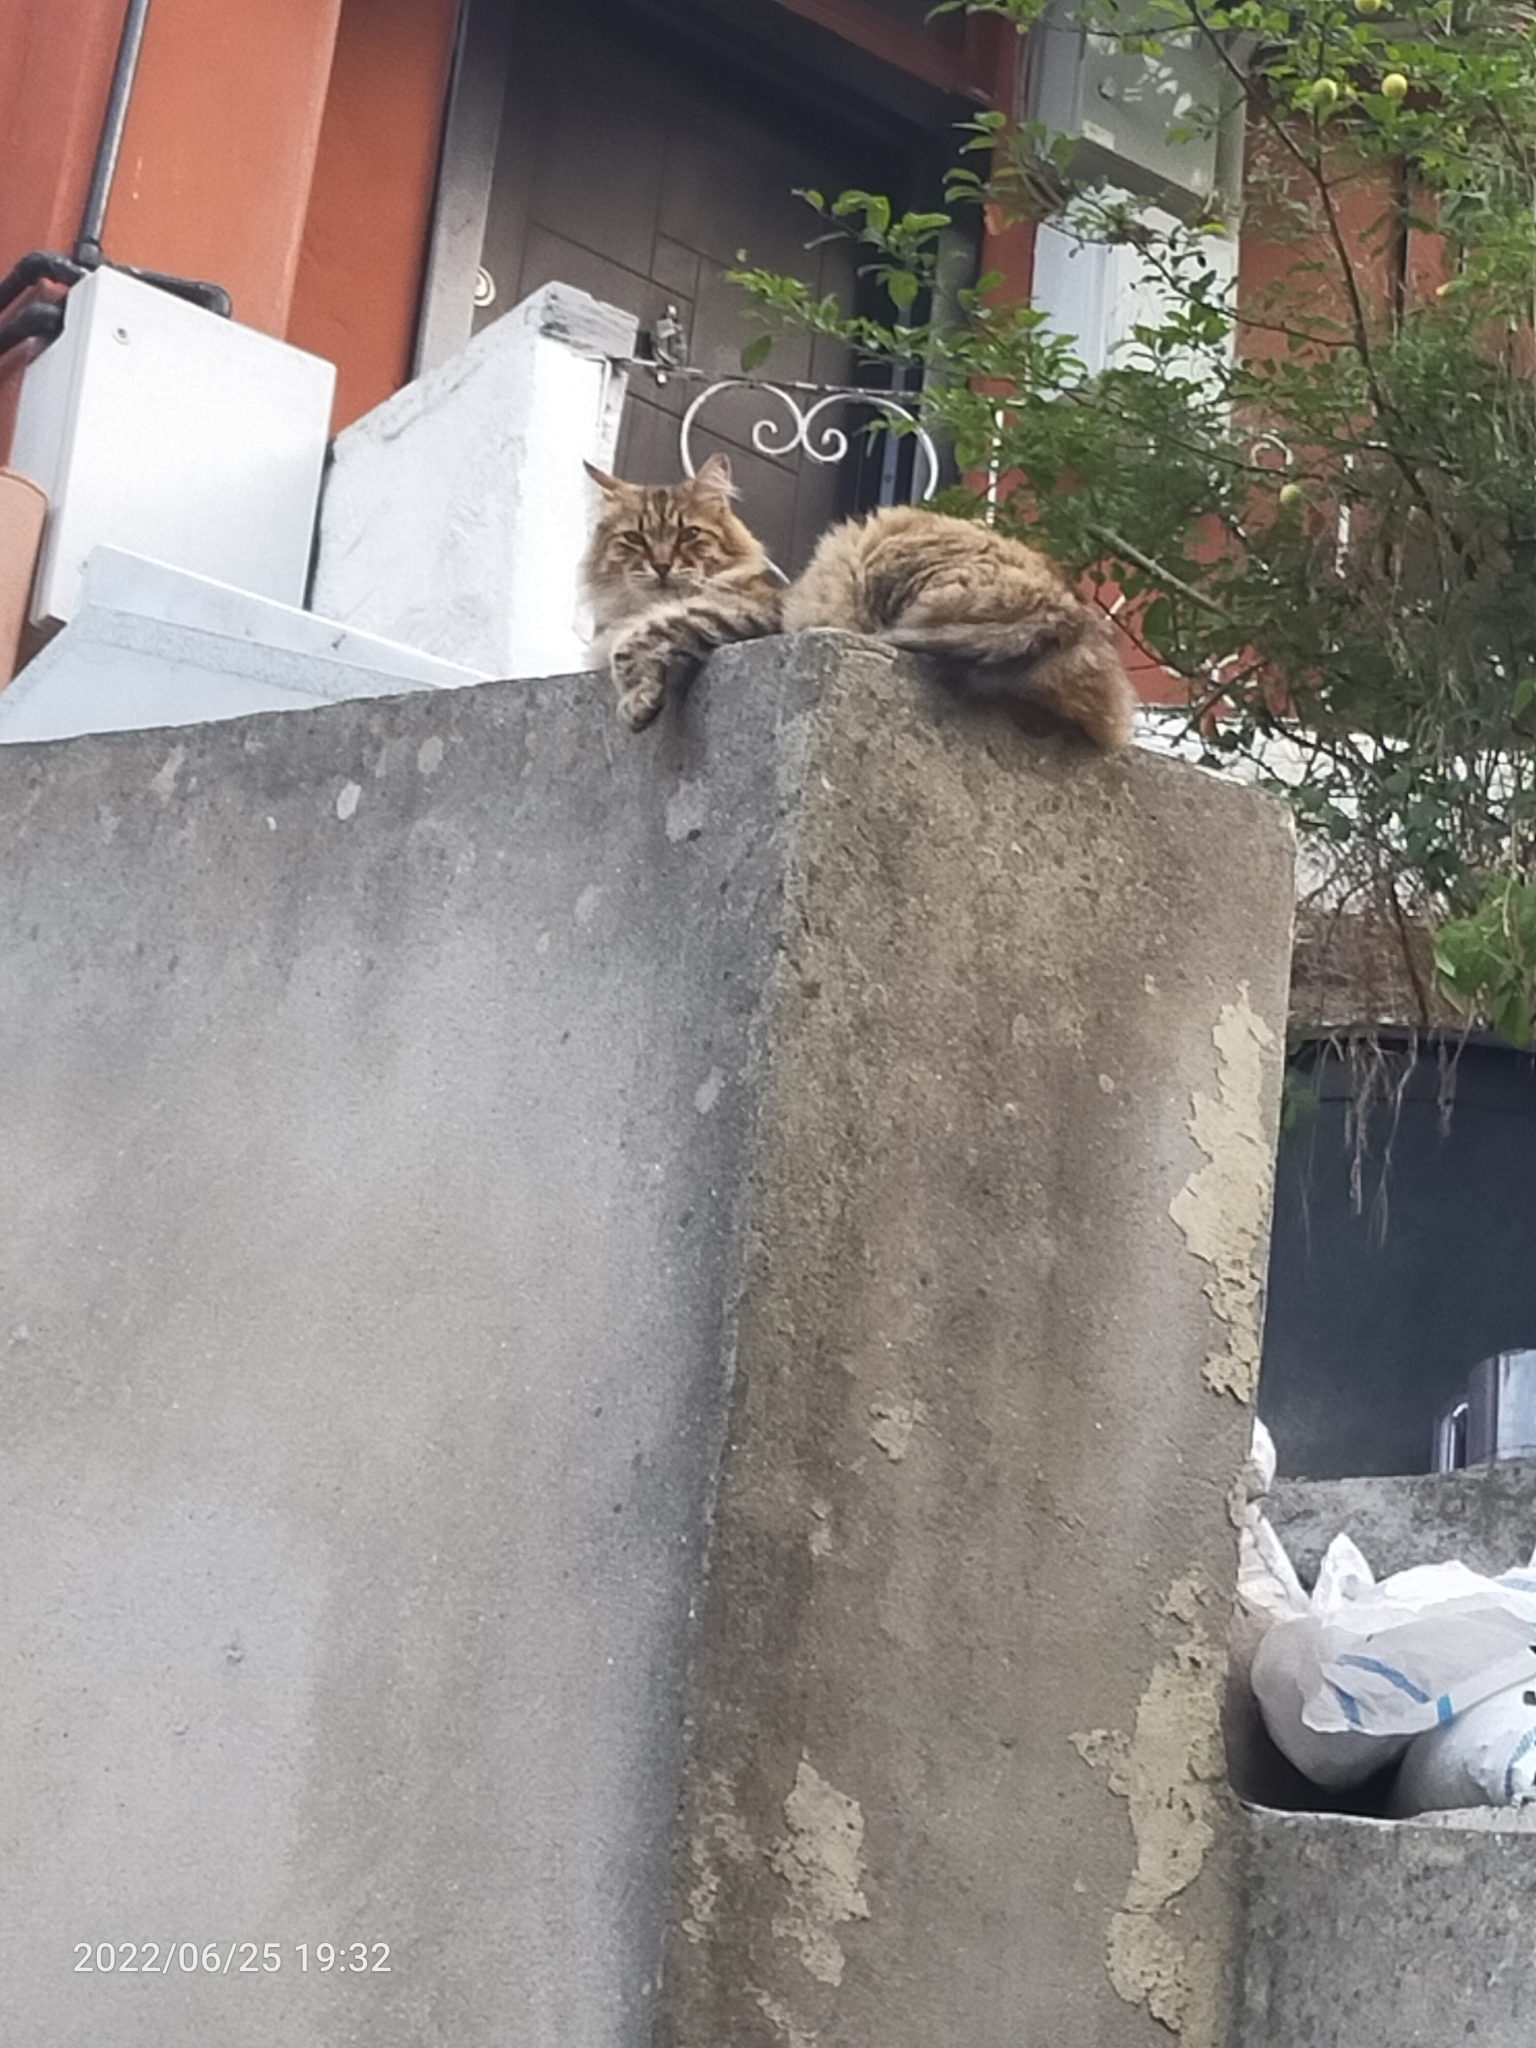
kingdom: Animalia
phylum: Chordata
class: Mammalia
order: Carnivora
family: Felidae
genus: Felis
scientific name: Felis catus
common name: Domestic cat
